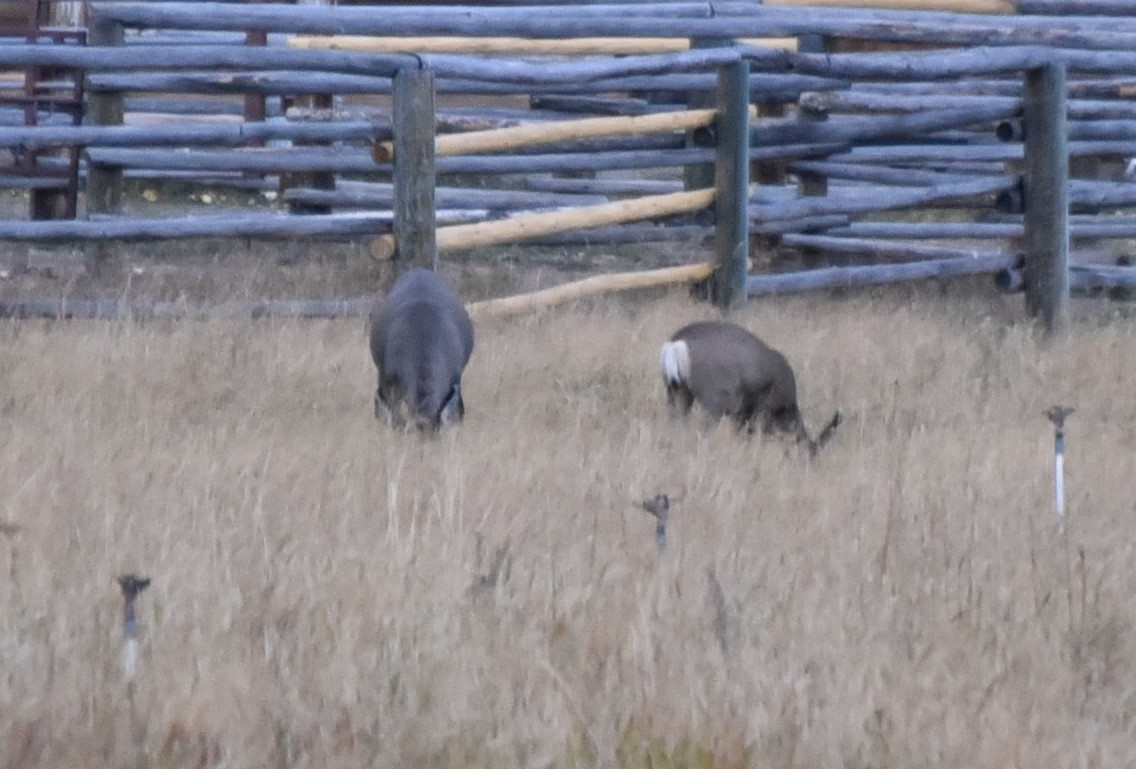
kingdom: Animalia
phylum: Chordata
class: Mammalia
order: Artiodactyla
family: Cervidae
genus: Odocoileus
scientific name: Odocoileus hemionus
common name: Mule deer
